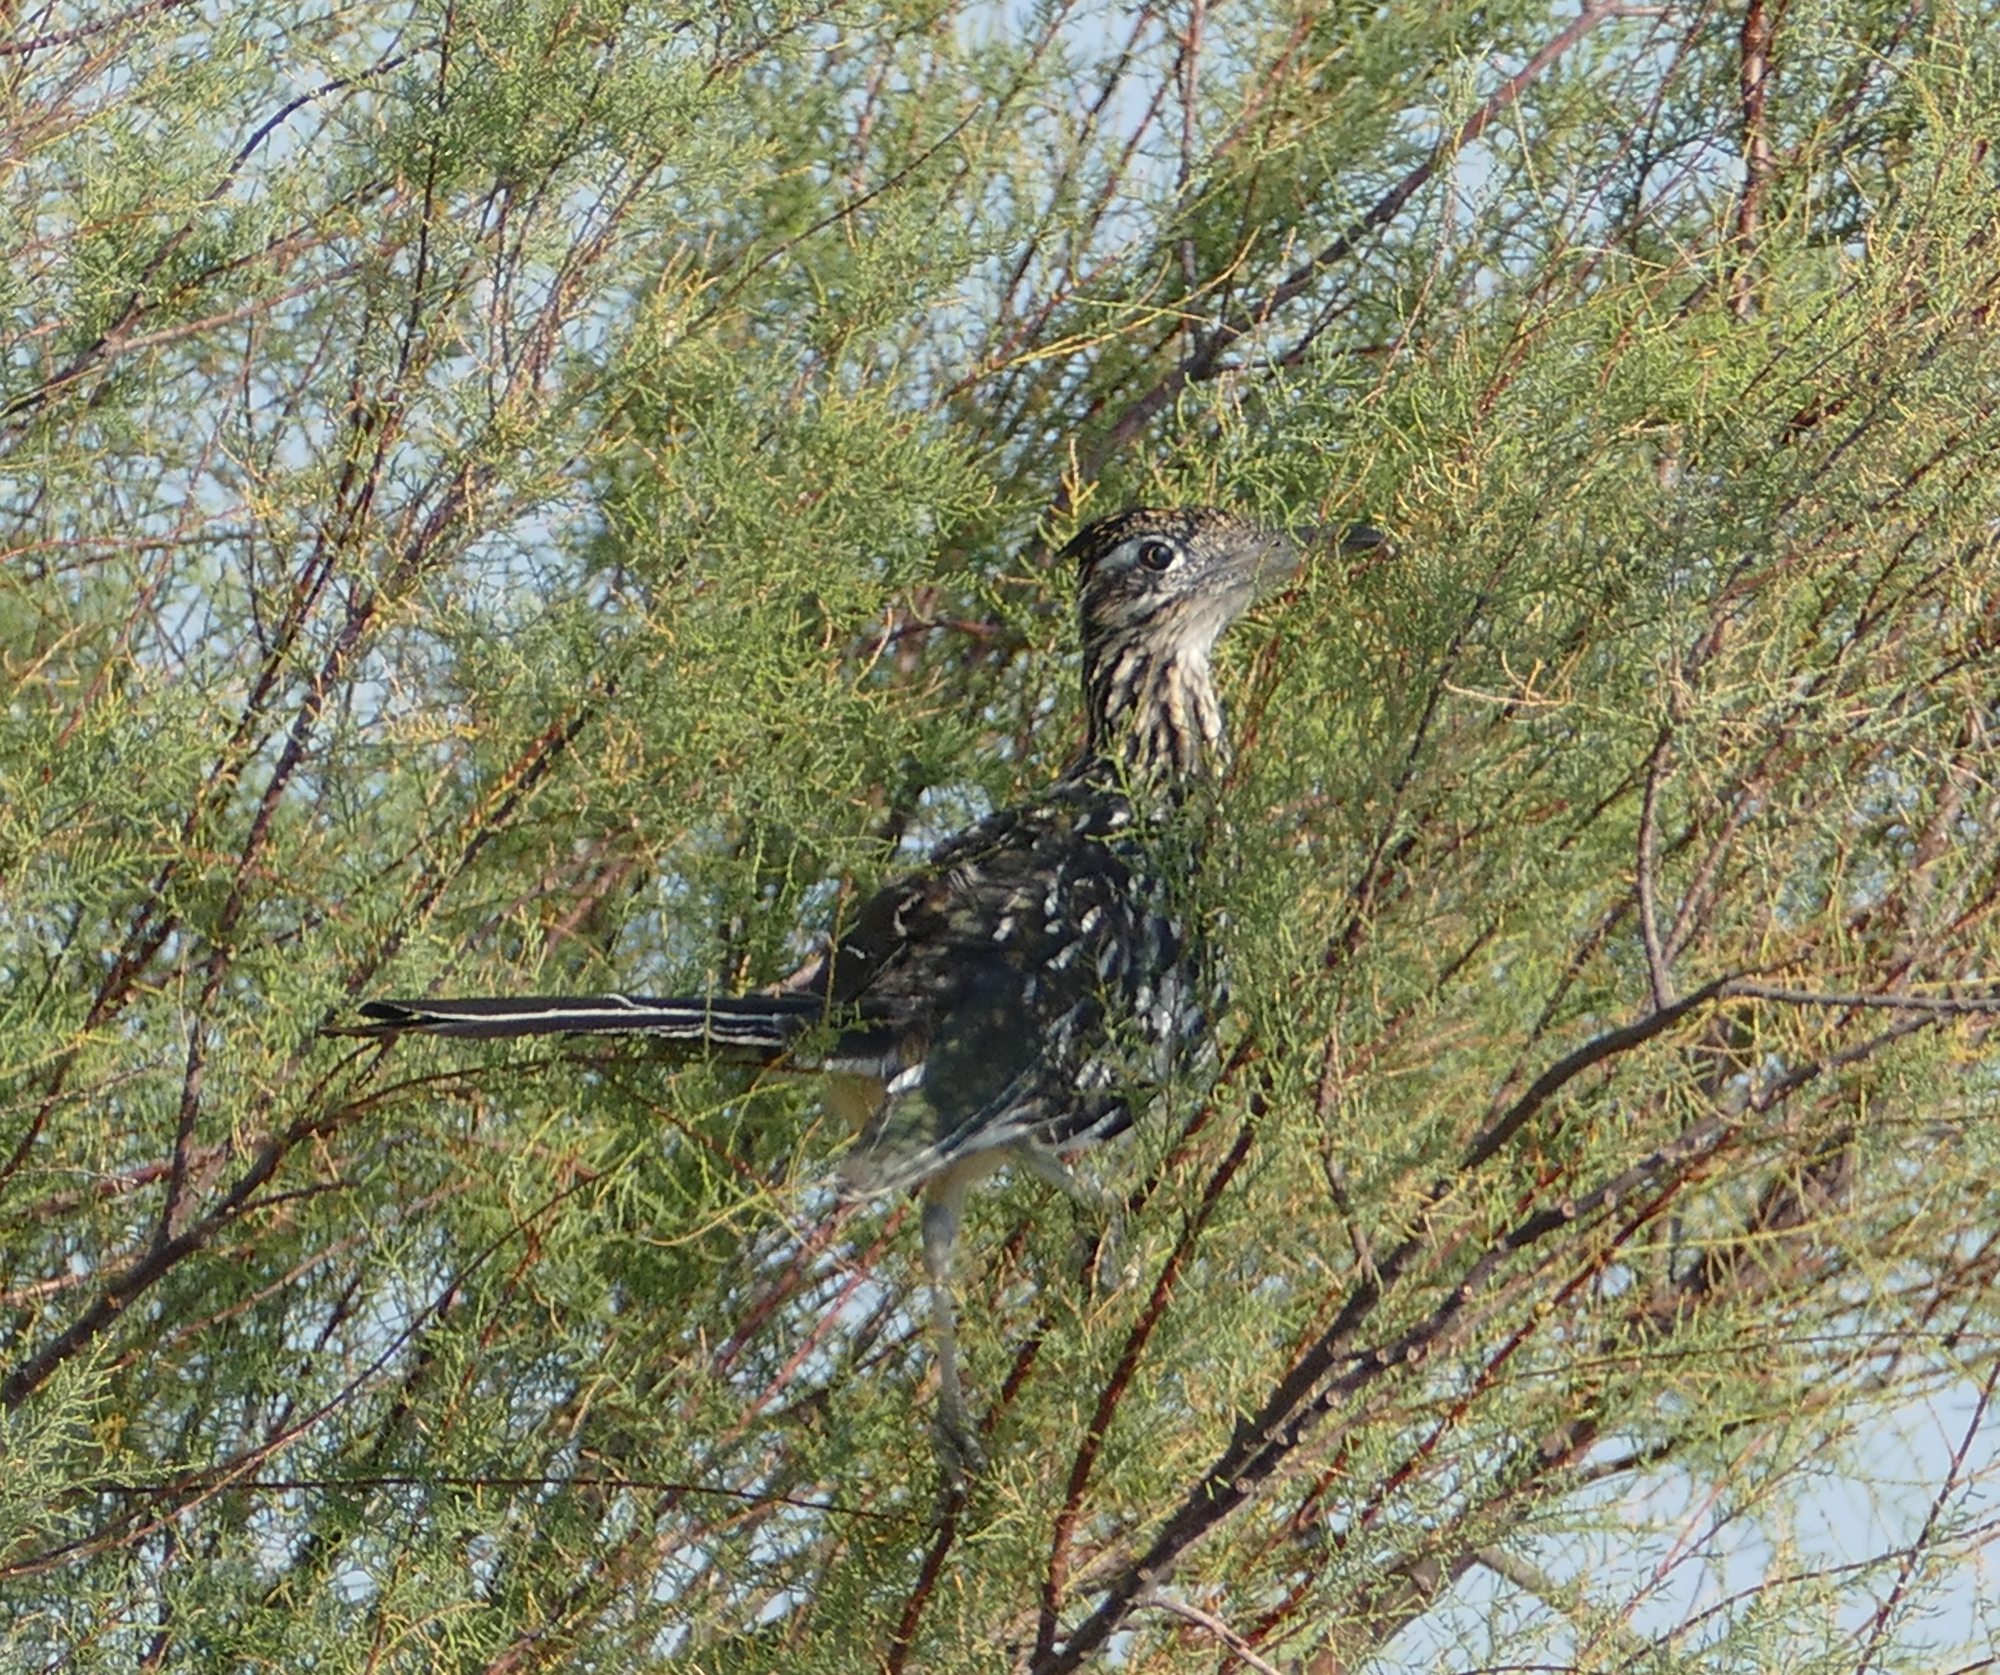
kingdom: Animalia
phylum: Chordata
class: Aves
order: Cuculiformes
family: Cuculidae
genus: Geococcyx
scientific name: Geococcyx californianus
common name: Greater roadrunner
